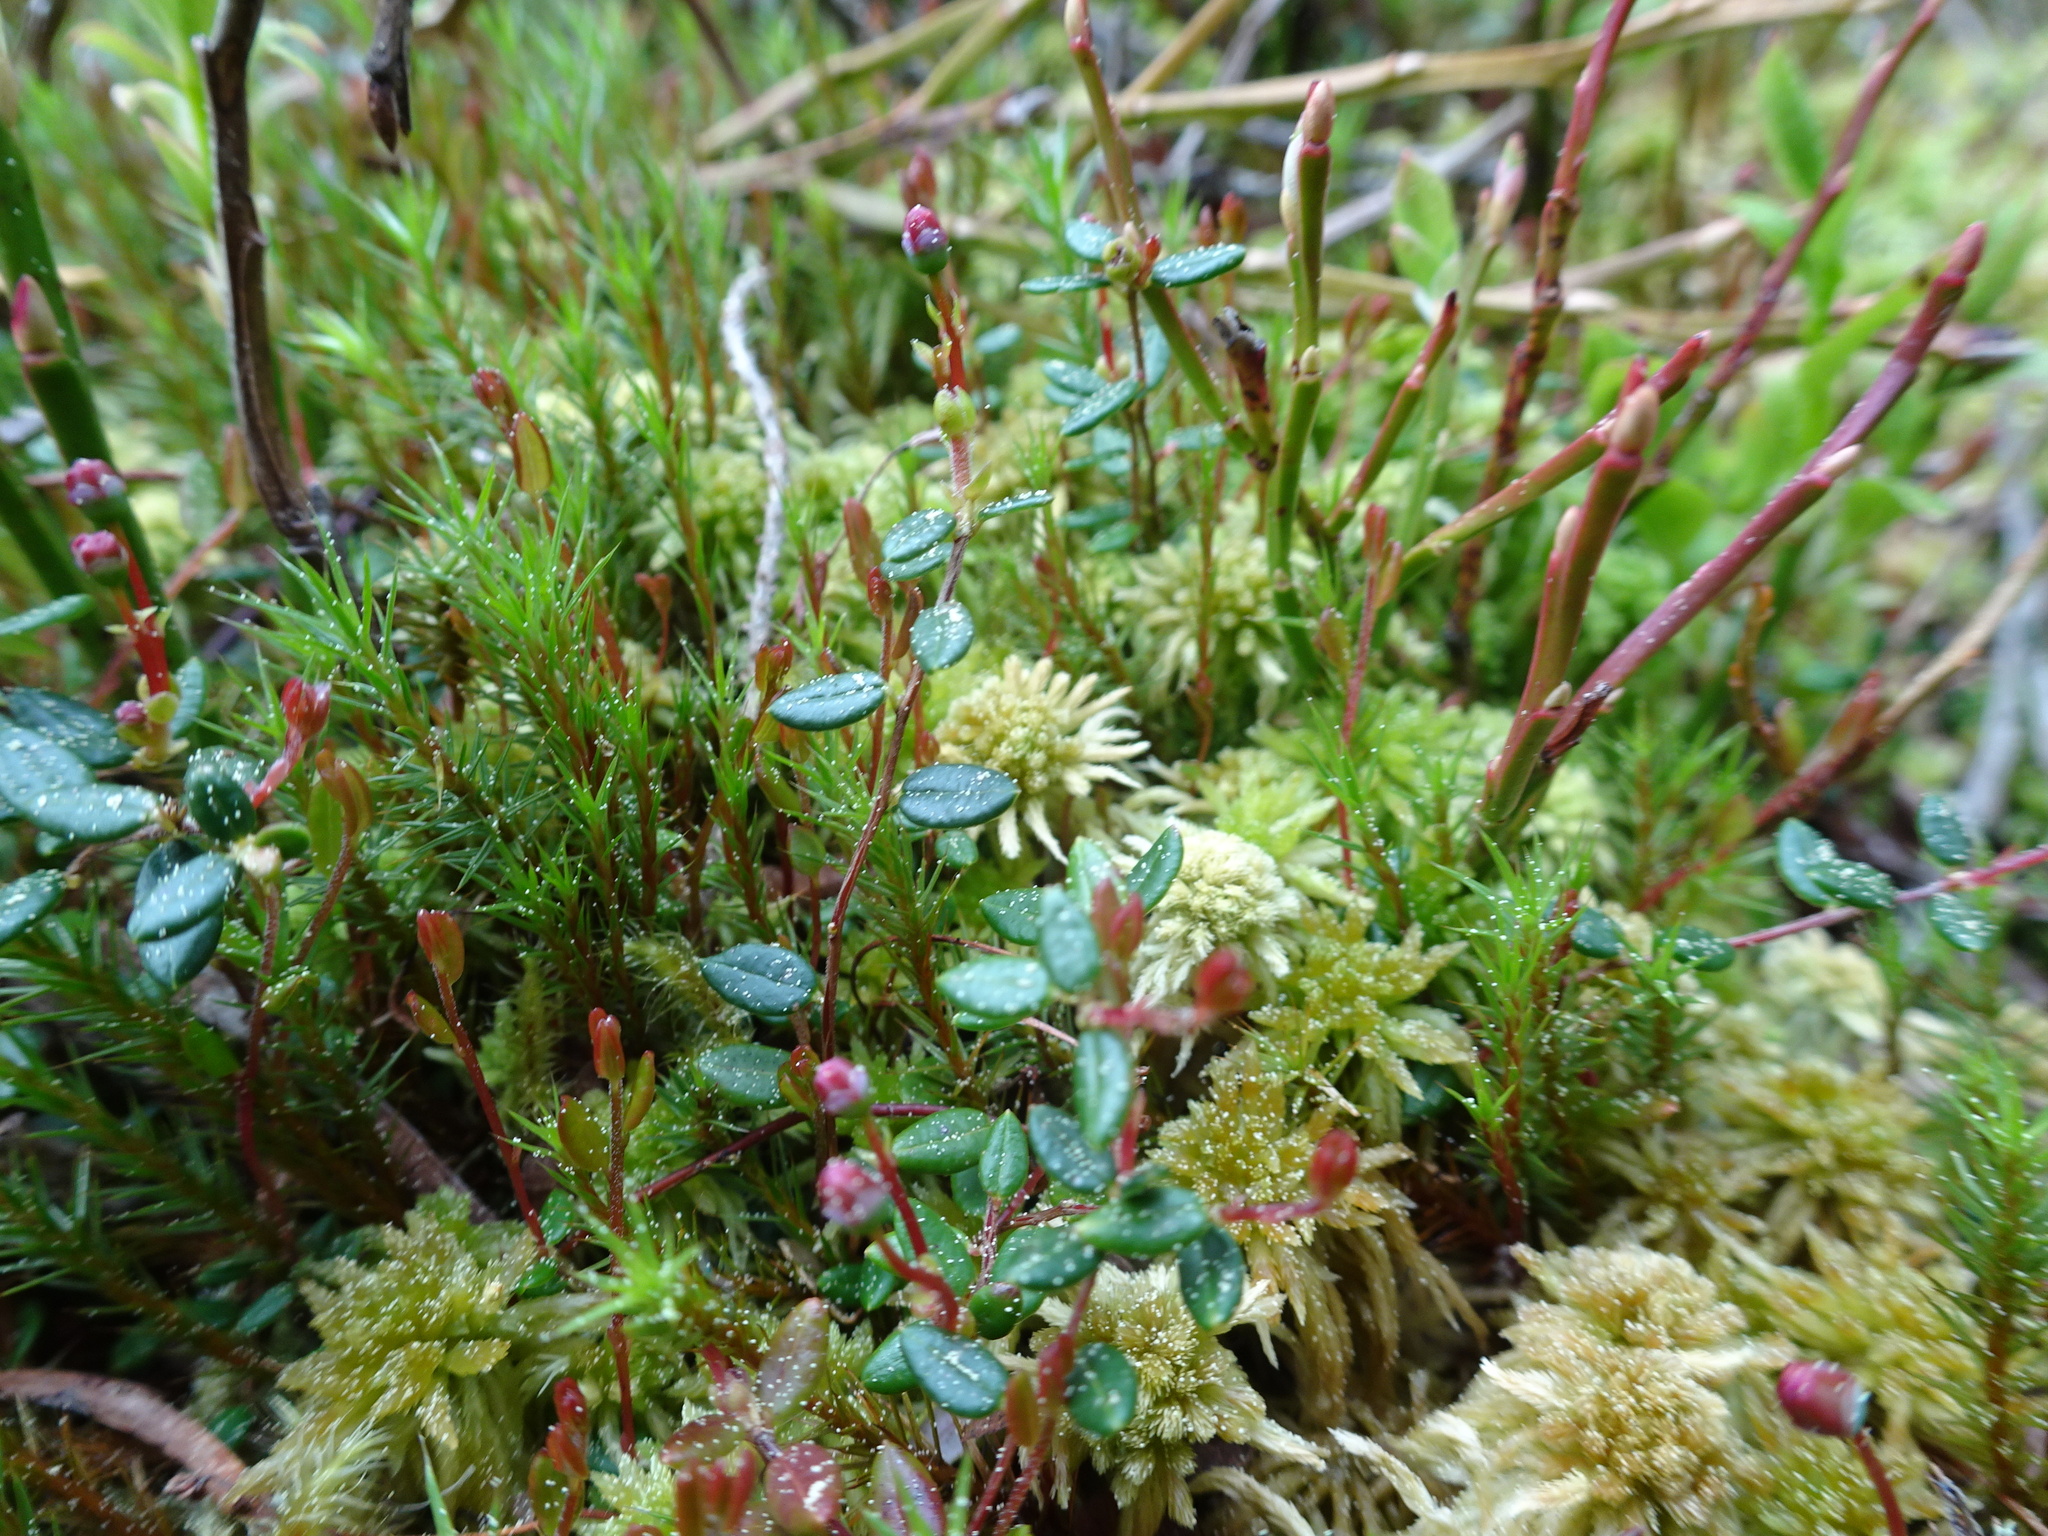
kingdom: Plantae
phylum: Tracheophyta
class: Magnoliopsida
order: Ericales
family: Ericaceae
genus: Vaccinium
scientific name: Vaccinium oxycoccos
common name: Cranberry
